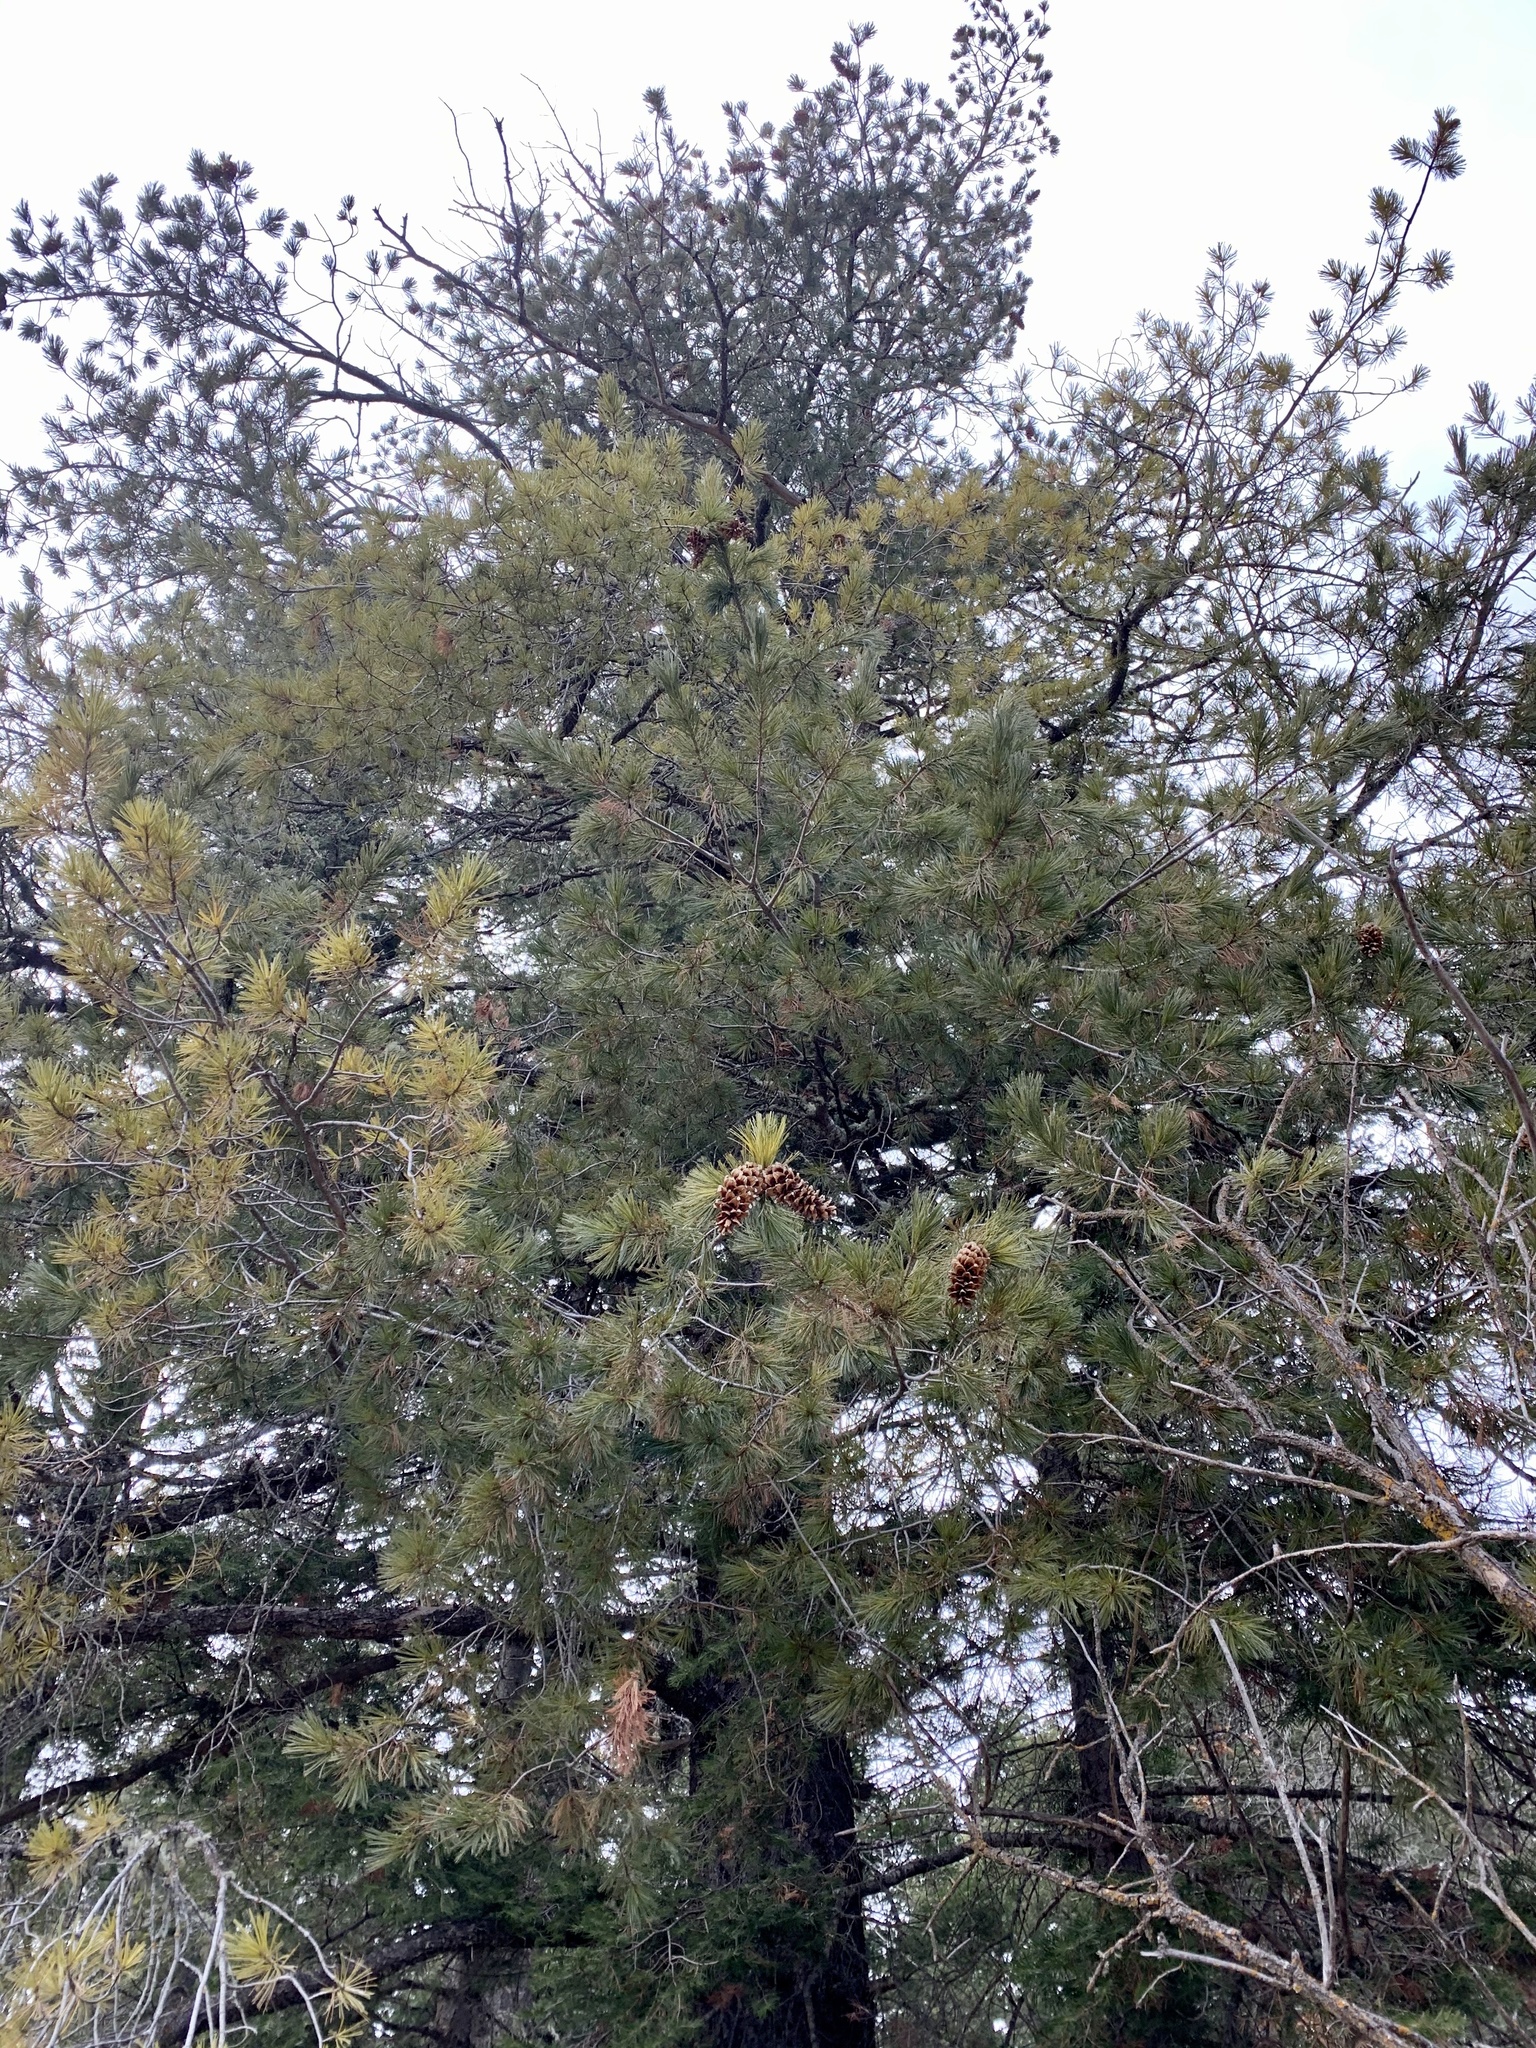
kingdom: Plantae
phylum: Tracheophyta
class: Pinopsida
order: Pinales
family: Pinaceae
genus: Pinus
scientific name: Pinus strobiformis
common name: Southwestern white pine
